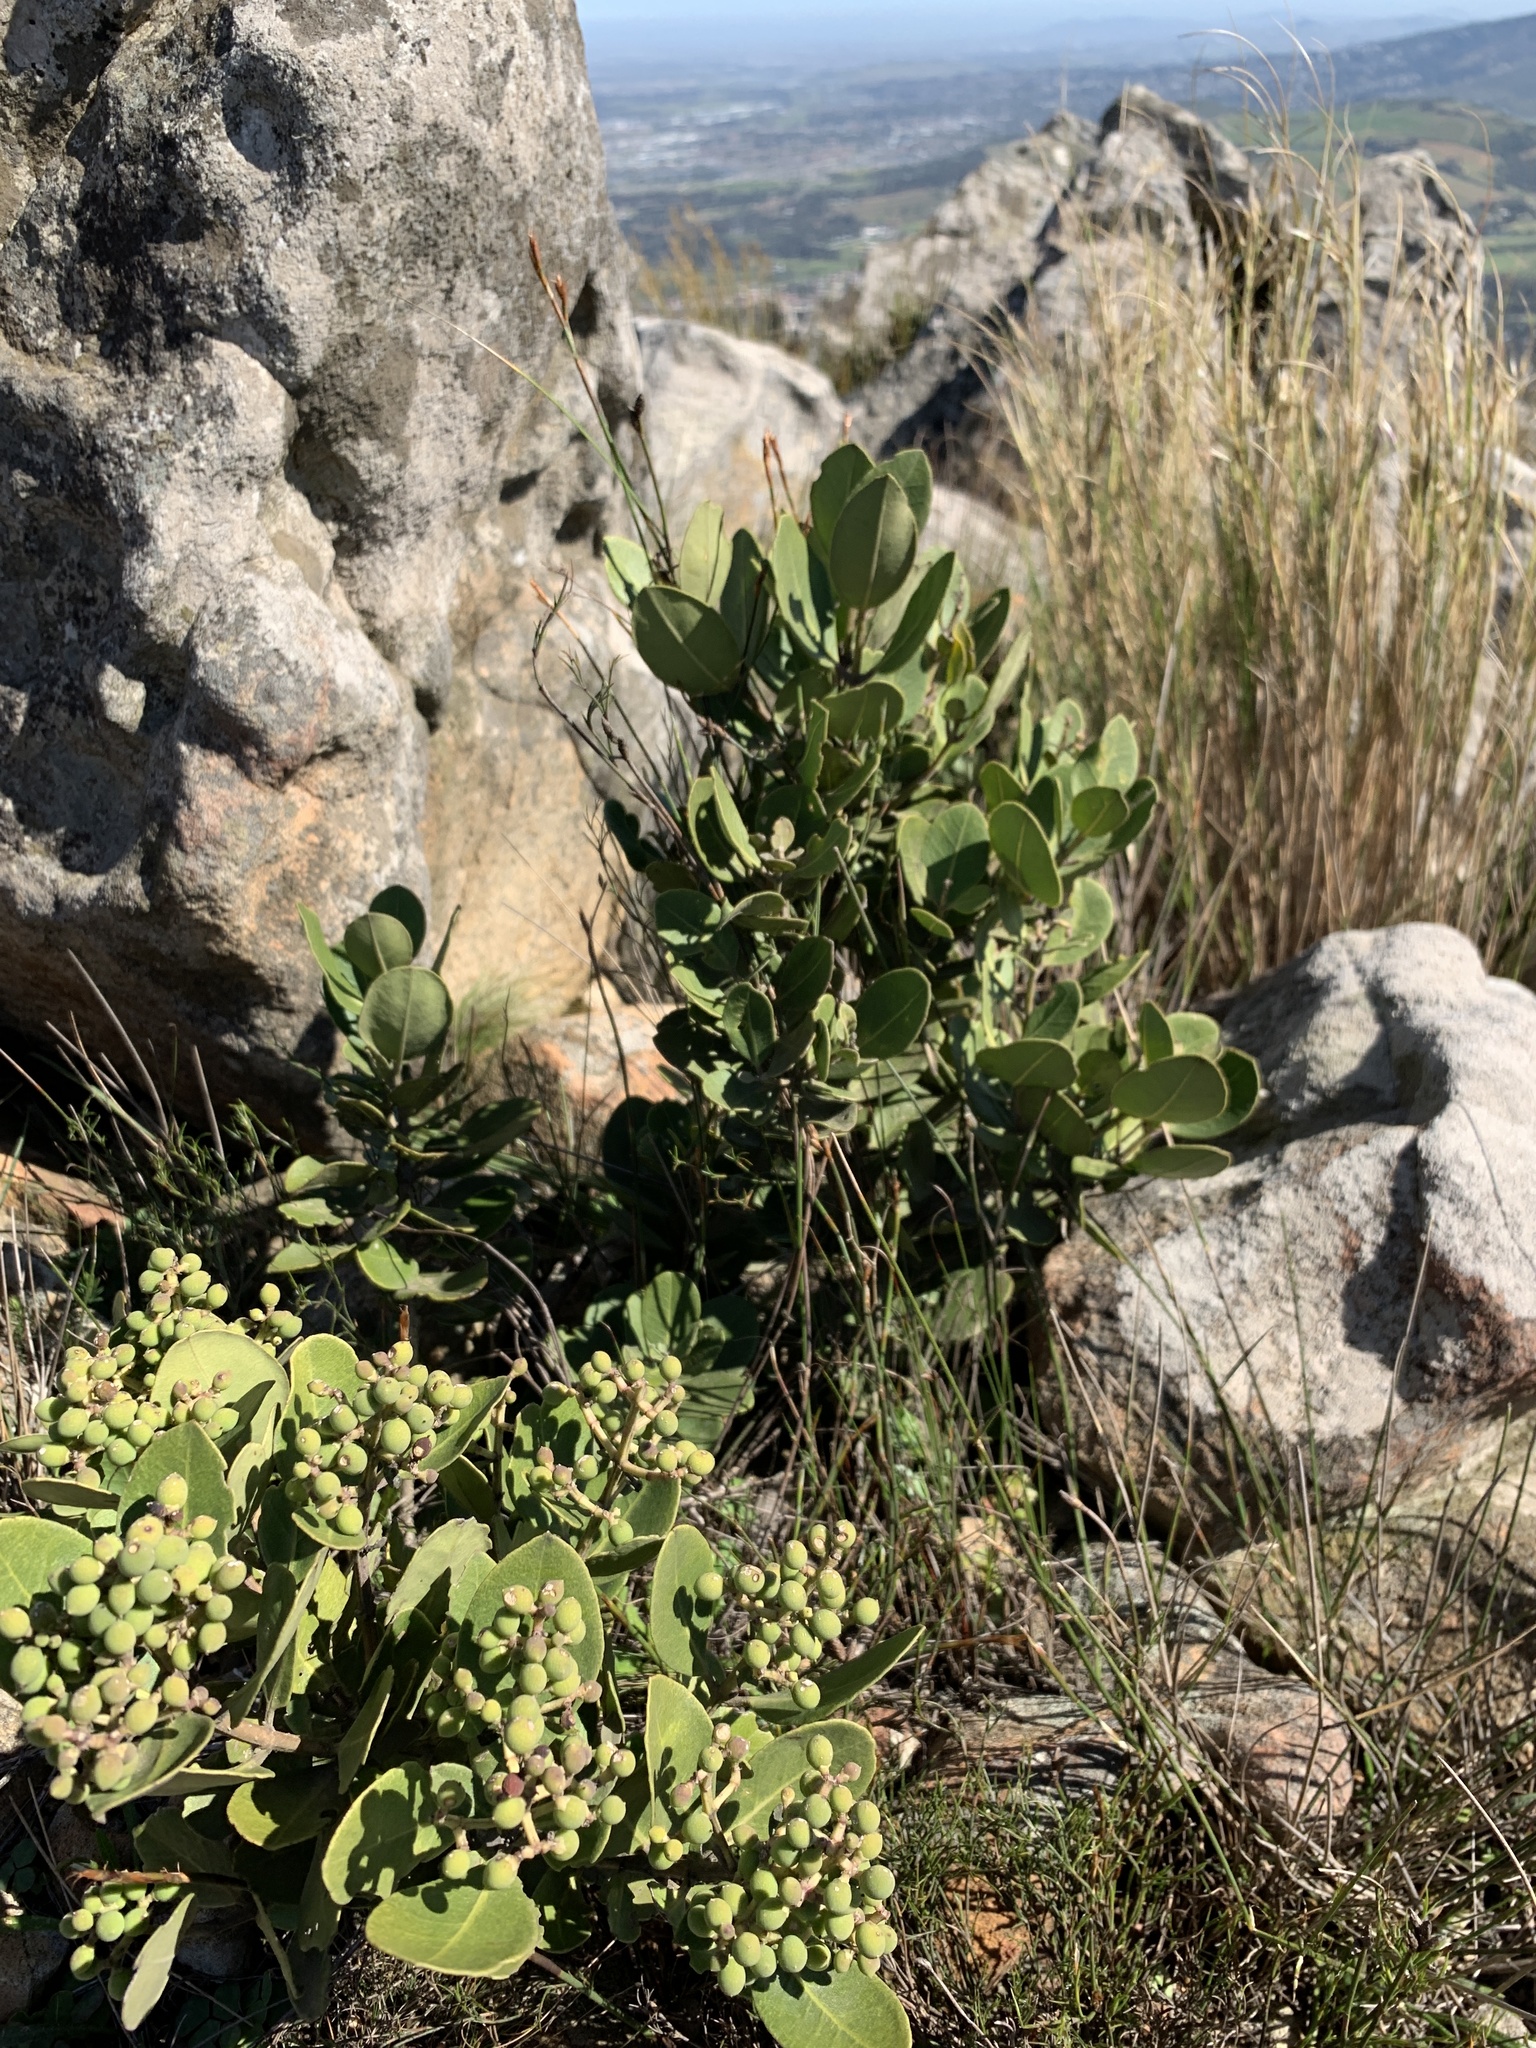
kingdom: Plantae
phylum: Tracheophyta
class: Magnoliopsida
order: Lamiales
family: Oleaceae
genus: Olea
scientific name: Olea capensis
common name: Black ironwood
